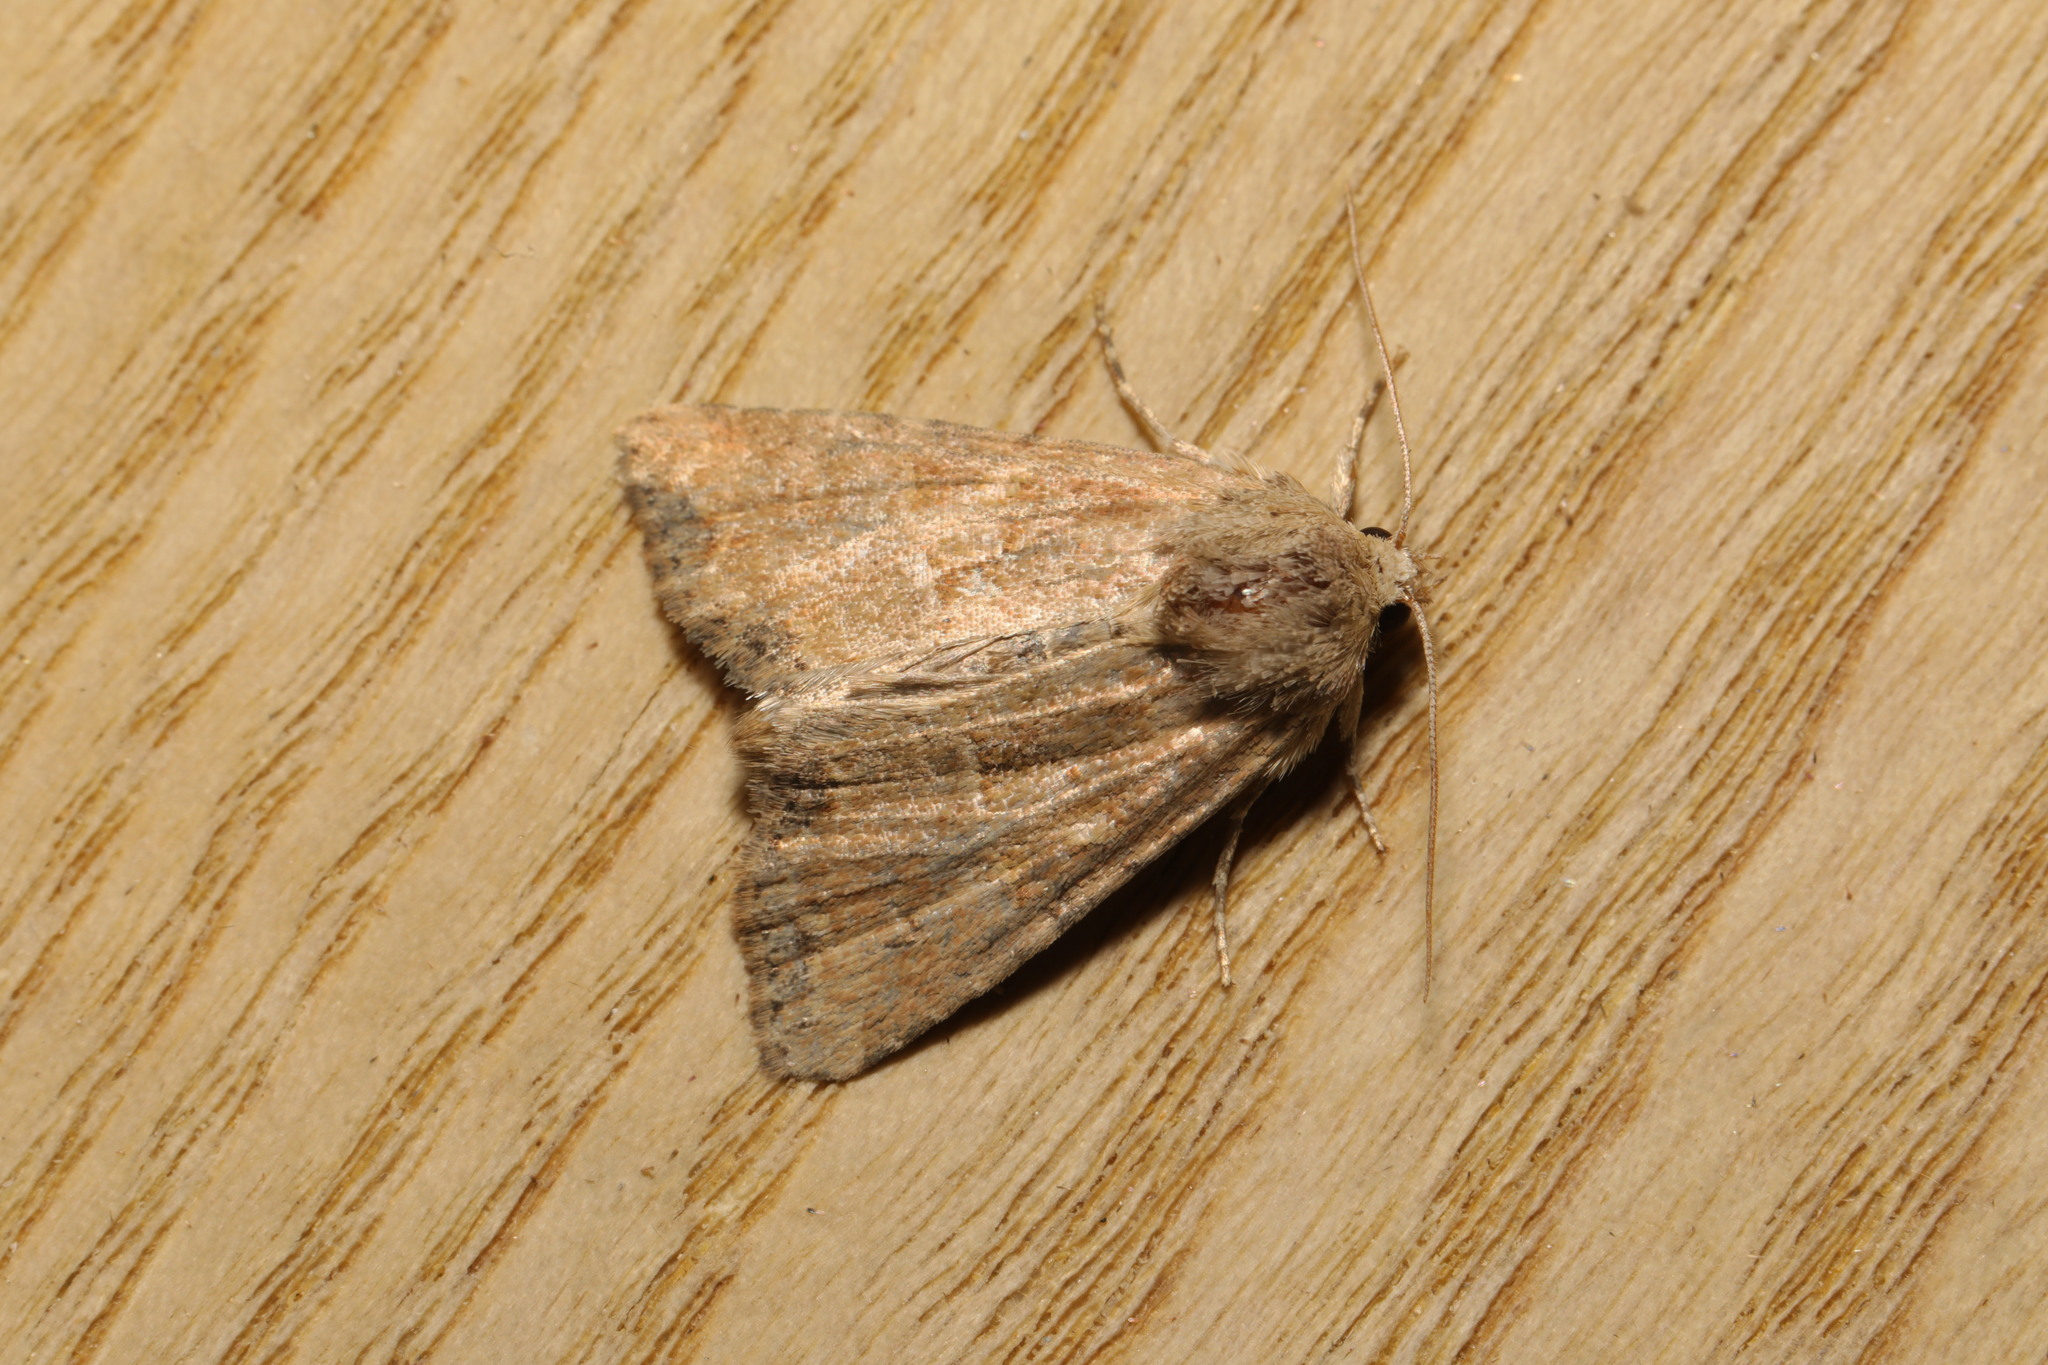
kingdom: Animalia
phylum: Arthropoda
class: Insecta
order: Lepidoptera
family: Noctuidae
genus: Mesoligia
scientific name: Mesoligia furuncula
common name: Cloaked minor
